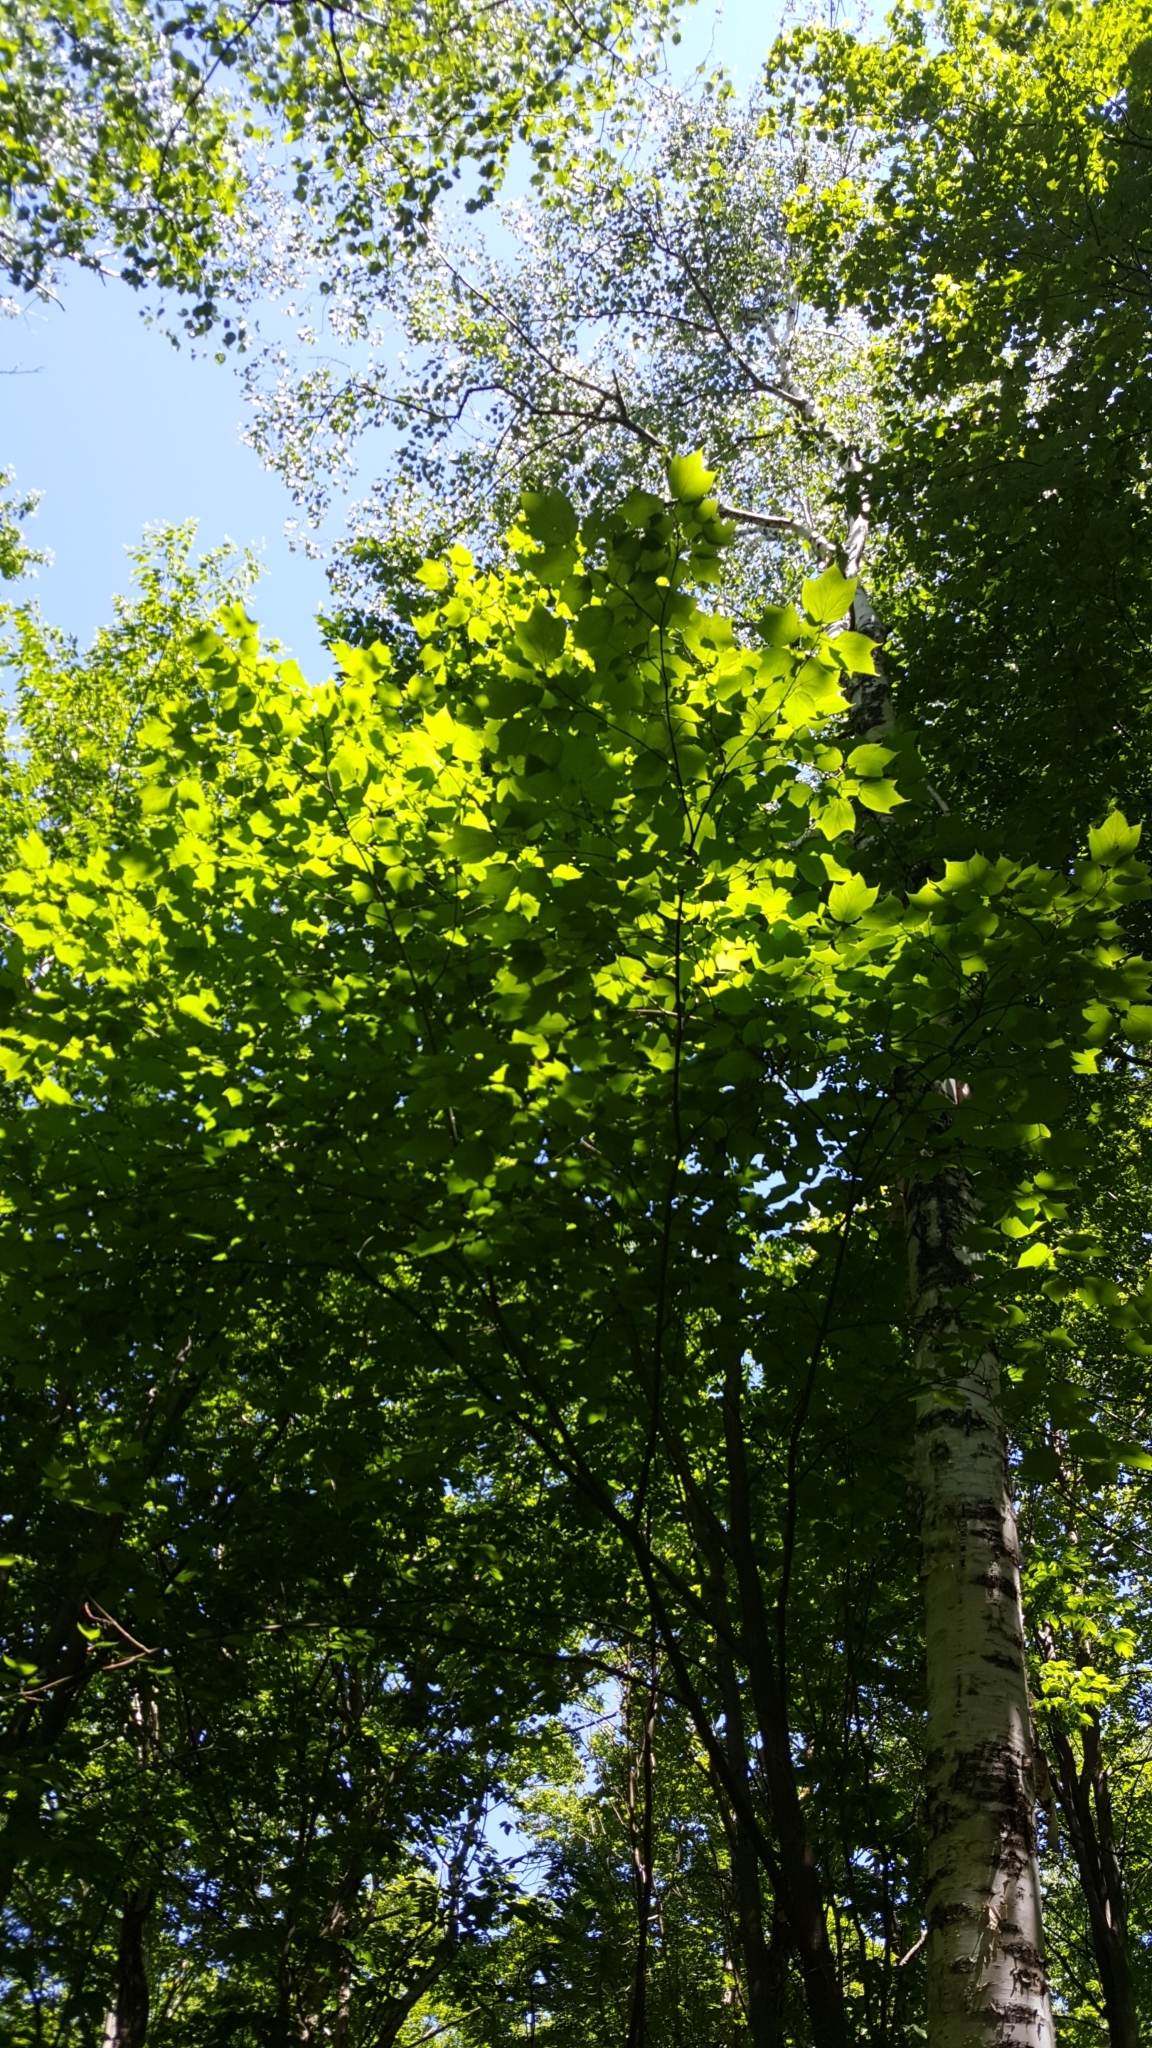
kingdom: Plantae
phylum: Tracheophyta
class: Magnoliopsida
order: Sapindales
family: Sapindaceae
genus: Acer
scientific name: Acer pensylvanicum
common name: Moosewood
